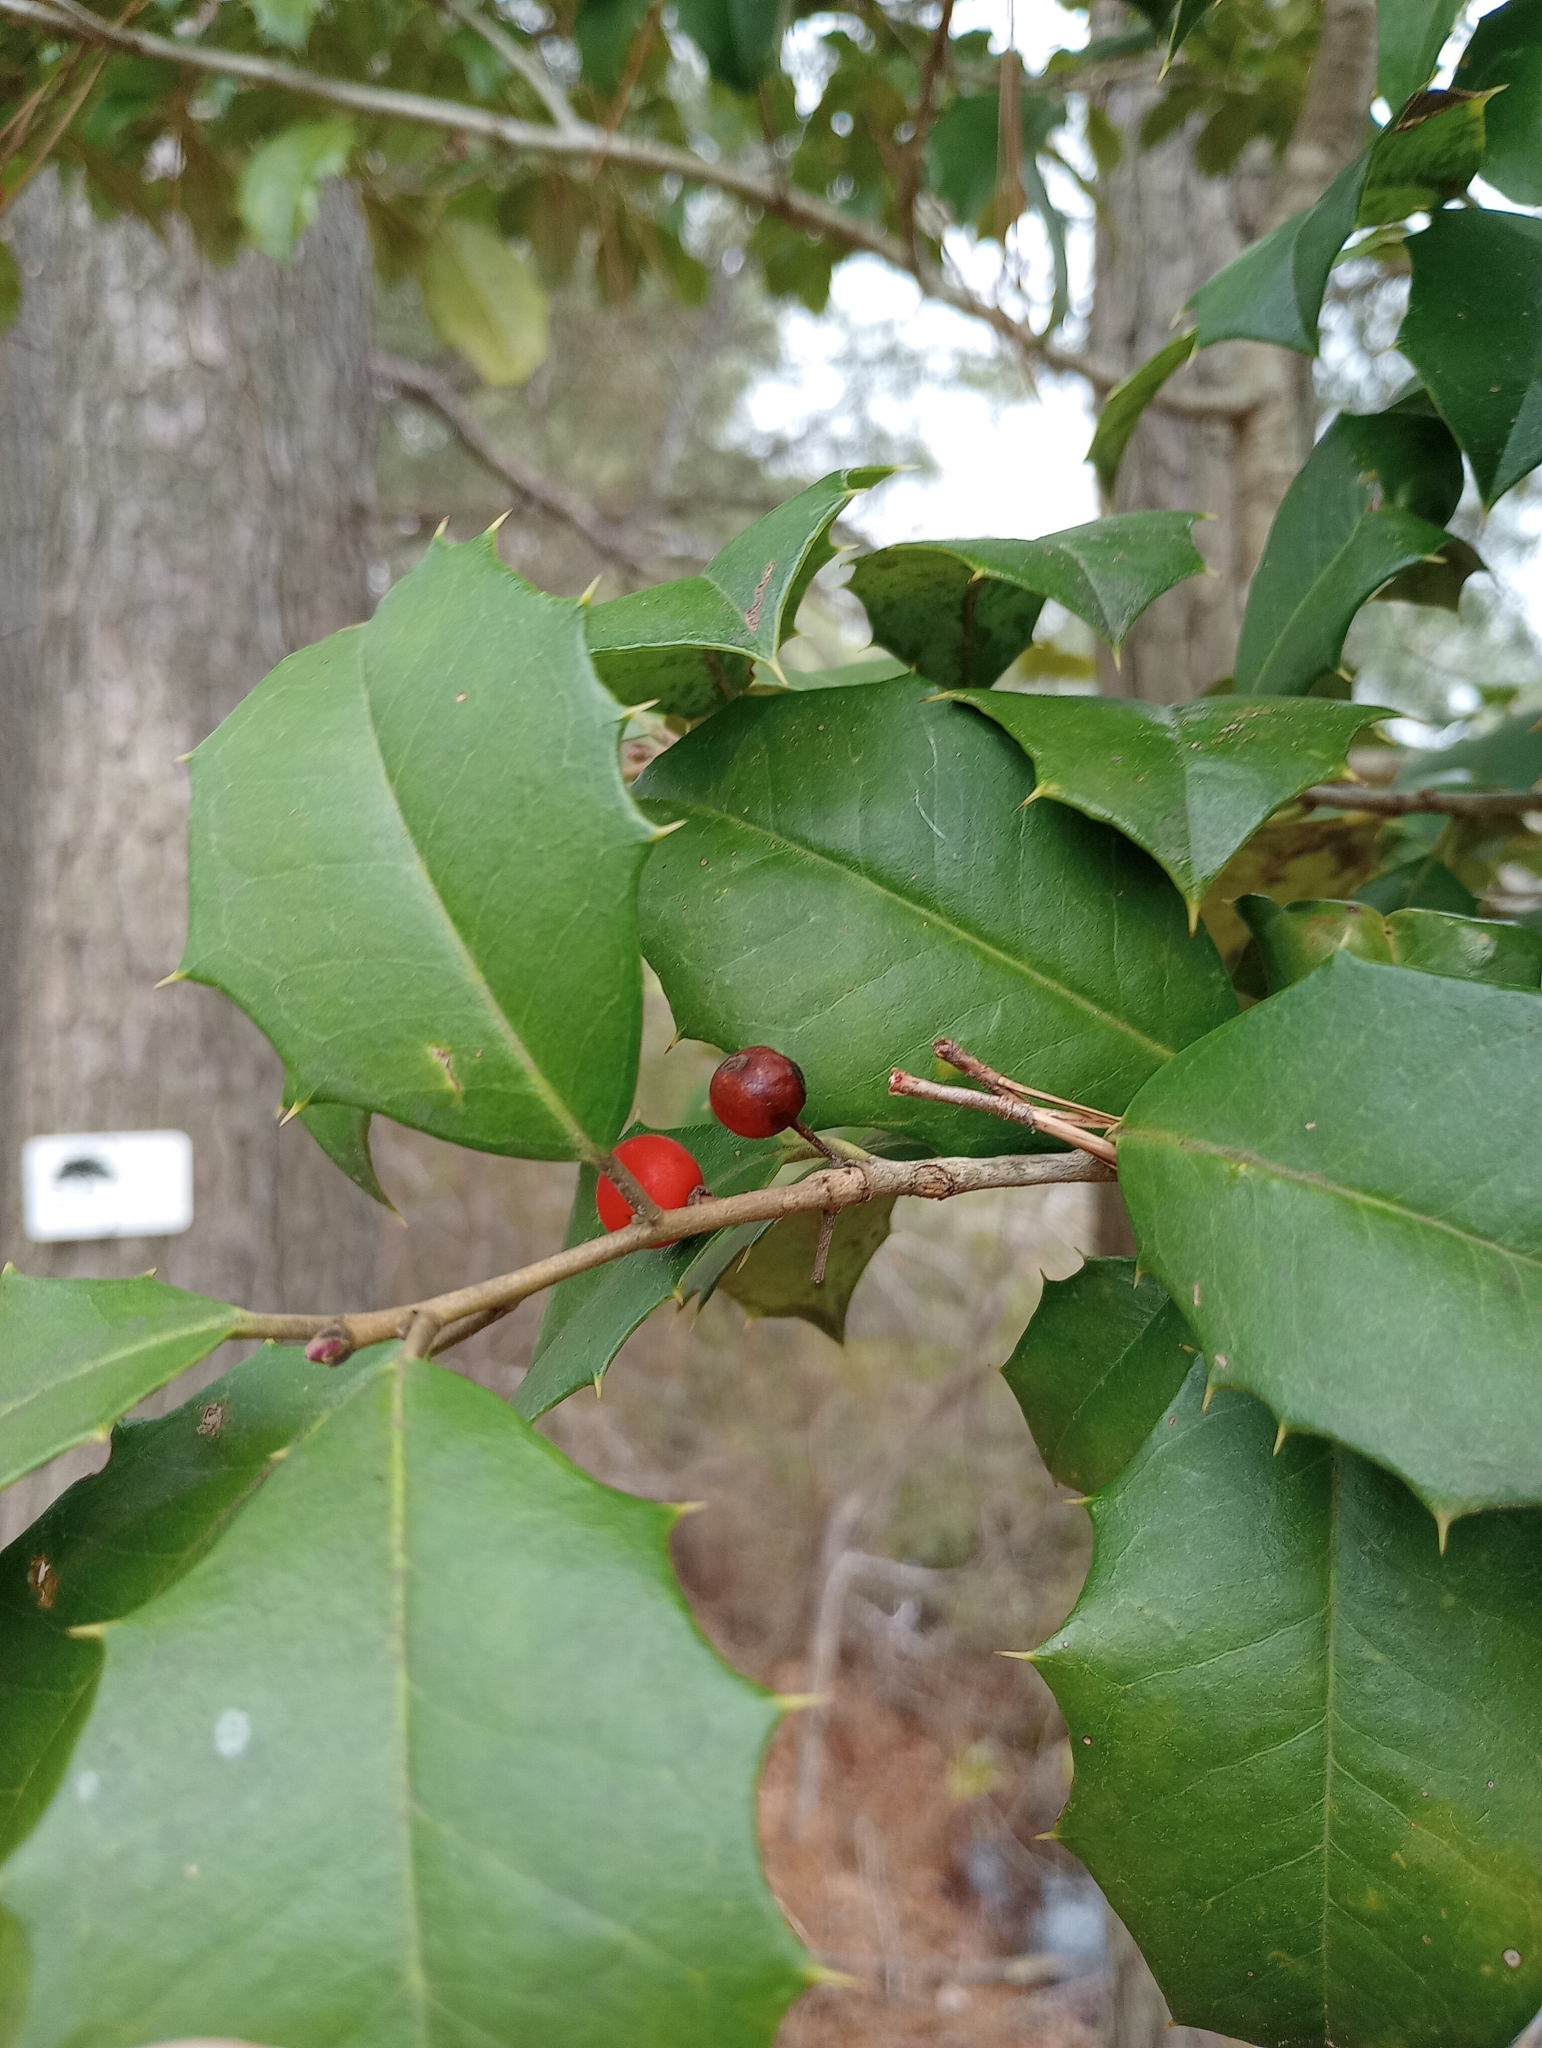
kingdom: Plantae
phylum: Tracheophyta
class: Magnoliopsida
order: Aquifoliales
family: Aquifoliaceae
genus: Ilex
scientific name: Ilex opaca
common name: American holly
